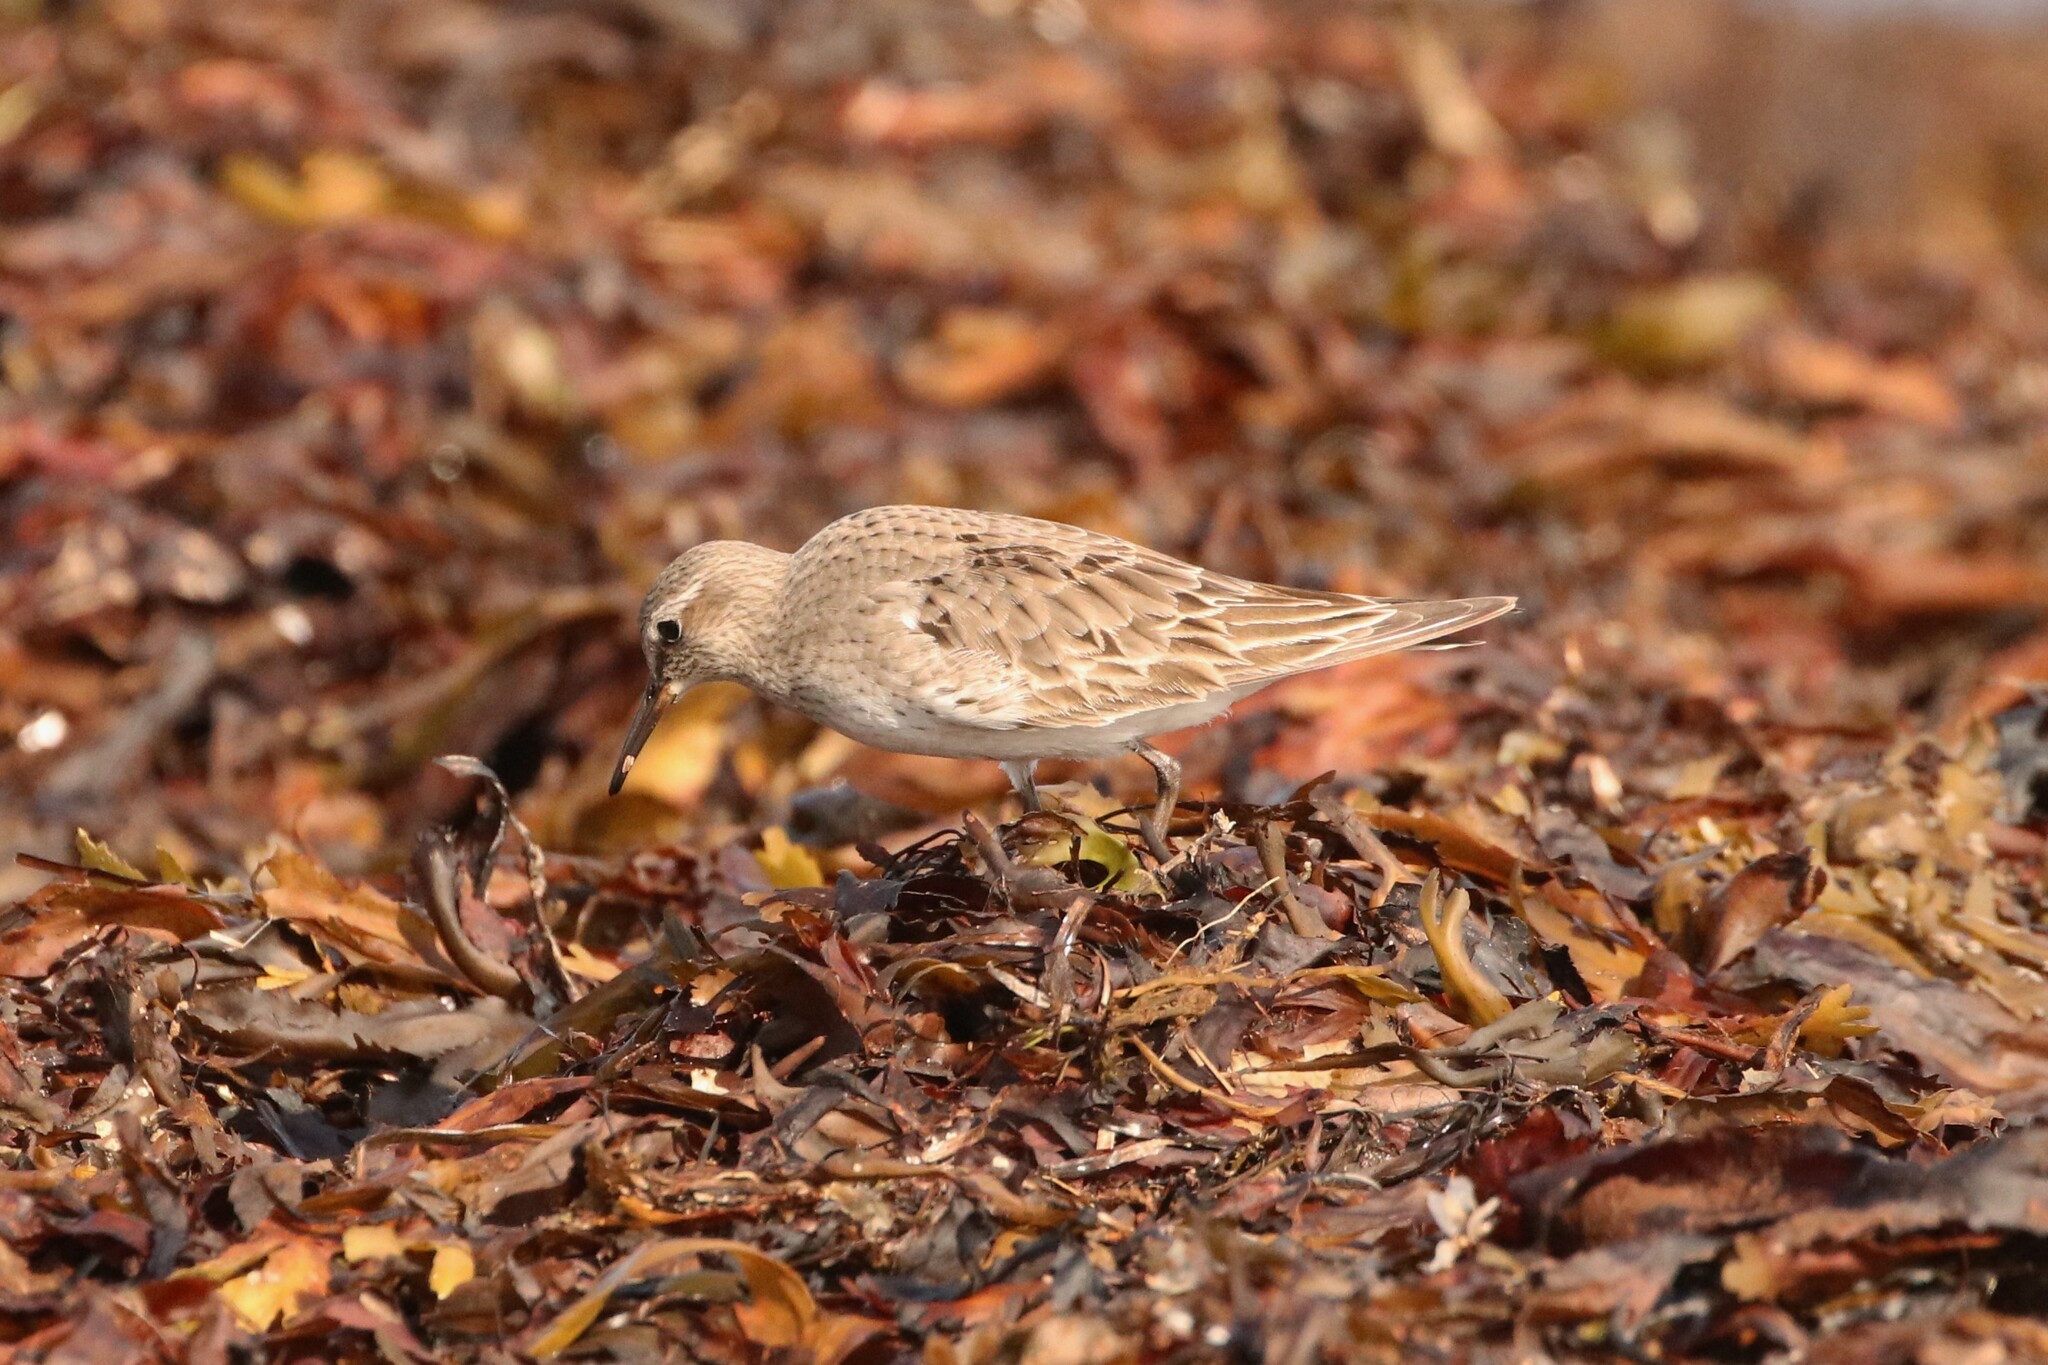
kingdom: Animalia
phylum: Chordata
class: Aves
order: Charadriiformes
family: Scolopacidae
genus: Calidris
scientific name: Calidris fuscicollis
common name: White-rumped sandpiper
